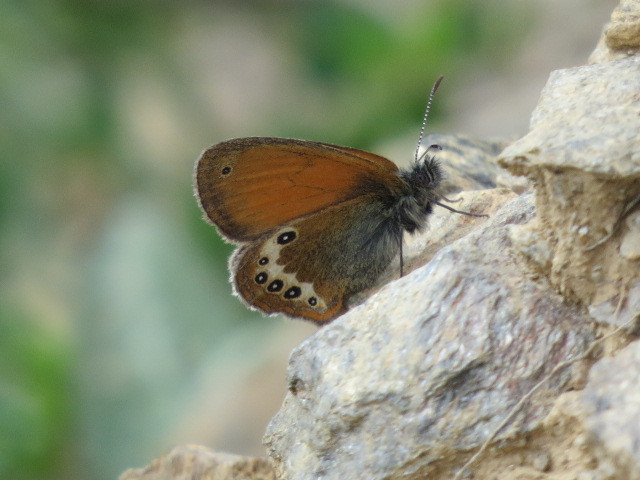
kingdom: Animalia
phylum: Arthropoda
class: Insecta
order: Lepidoptera
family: Nymphalidae
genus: Coenonympha
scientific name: Coenonympha
